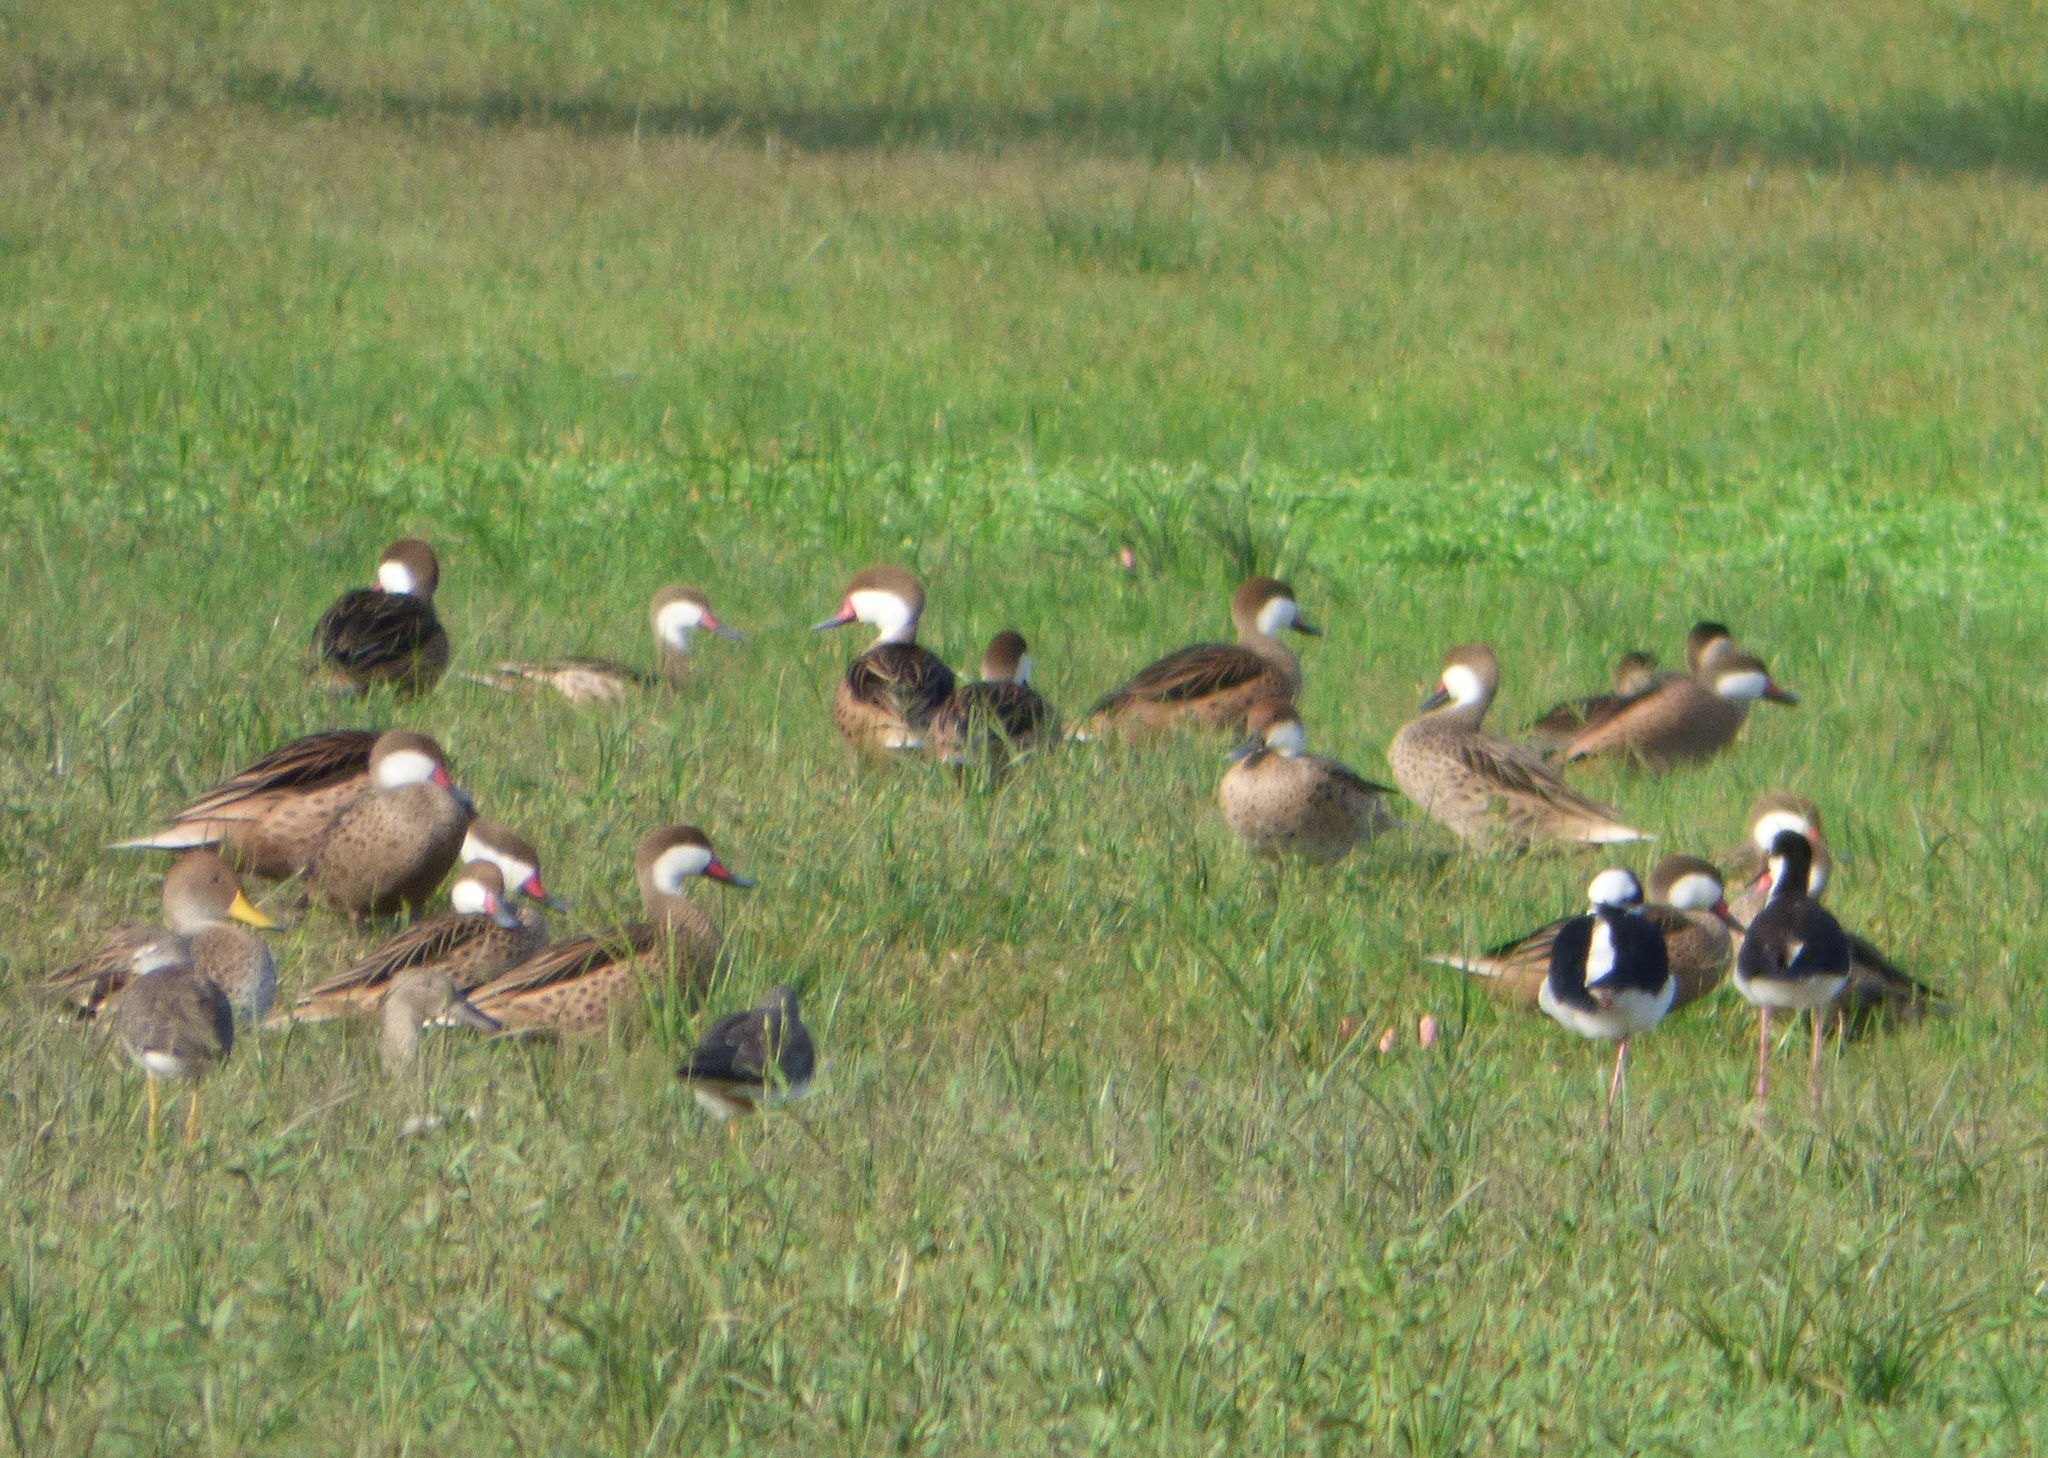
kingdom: Animalia
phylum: Chordata
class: Aves
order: Anseriformes
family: Anatidae
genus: Anas
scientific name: Anas bahamensis
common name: White-cheeked pintail
